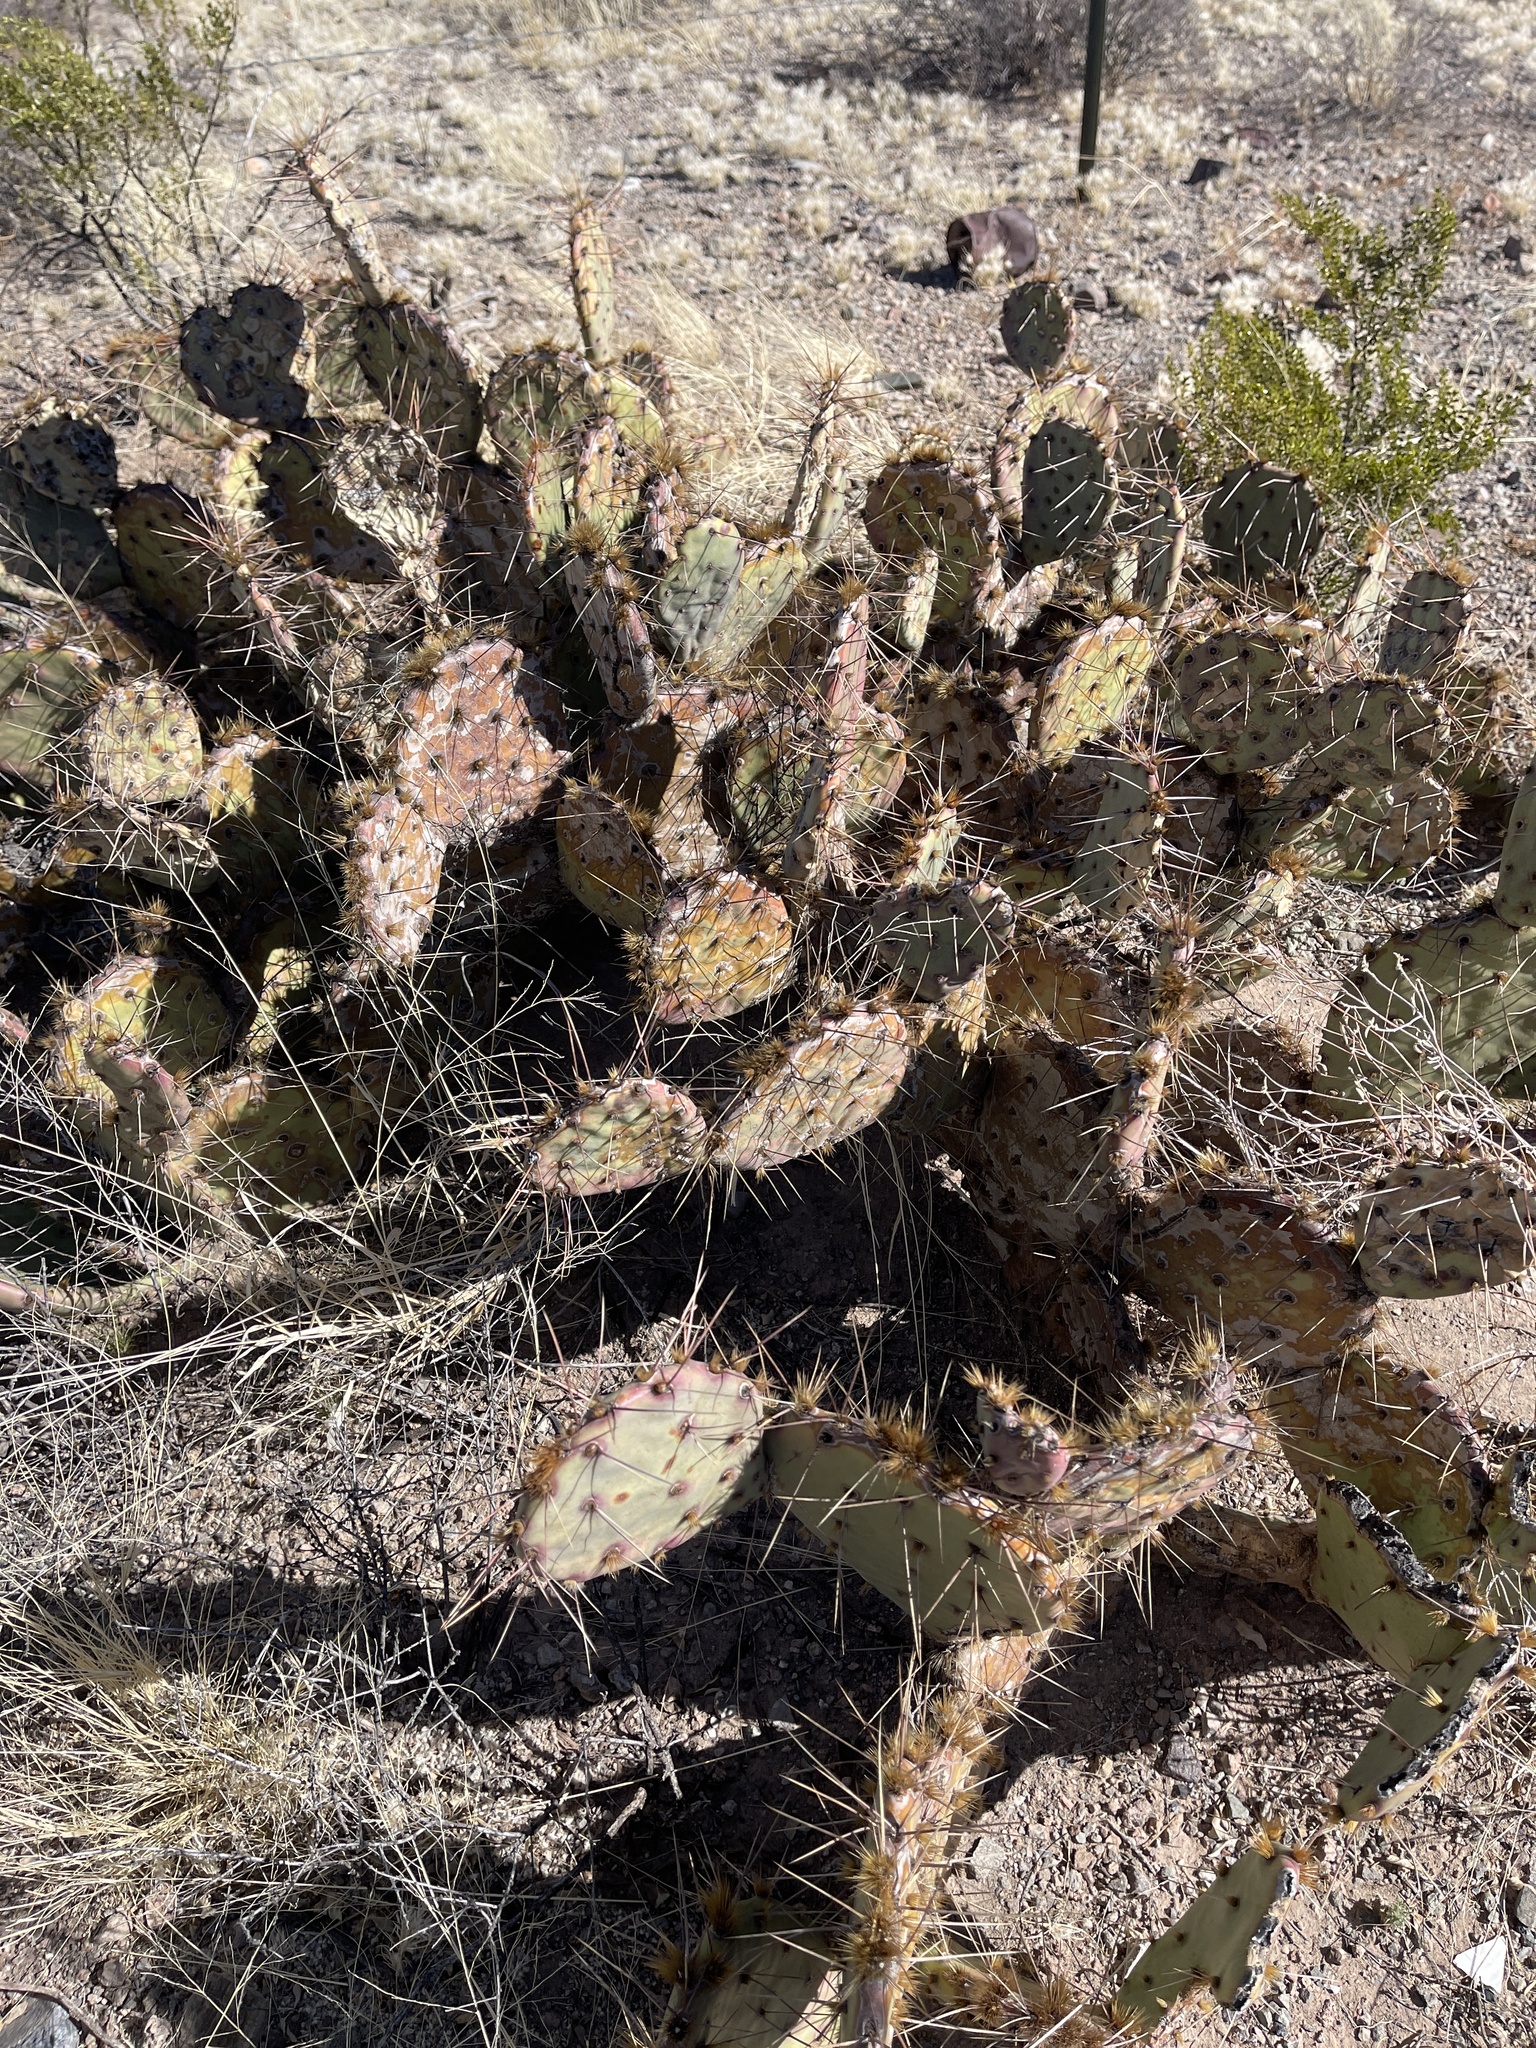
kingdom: Plantae
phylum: Tracheophyta
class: Magnoliopsida
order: Caryophyllales
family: Cactaceae
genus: Opuntia
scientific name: Opuntia phaeacantha
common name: New mexico prickly-pear
